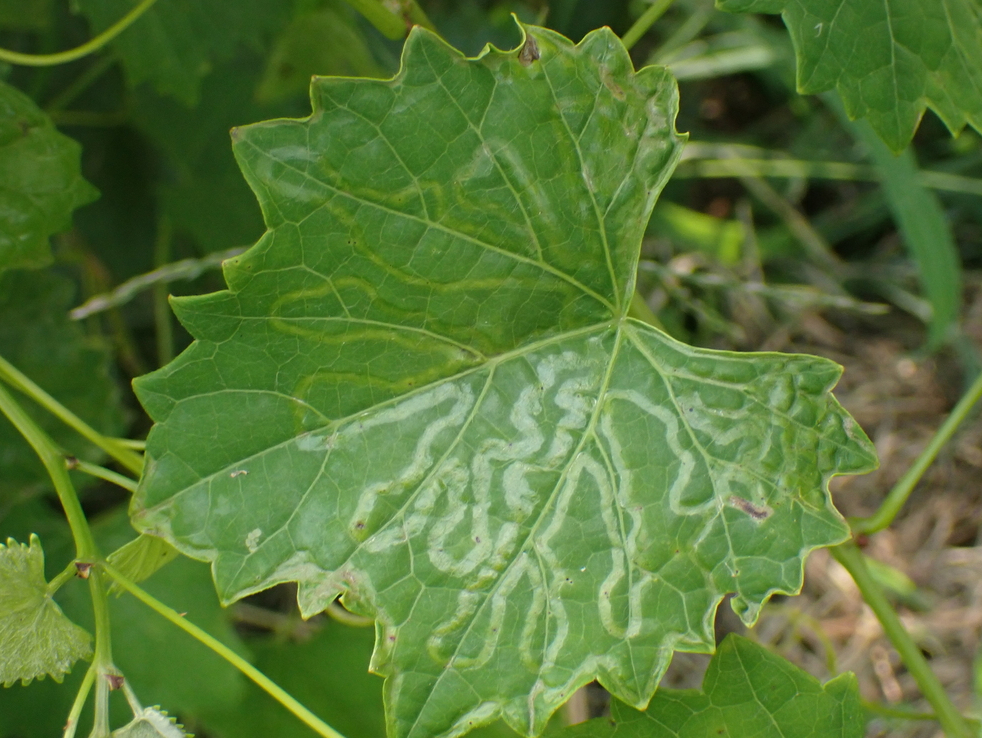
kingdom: Animalia
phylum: Arthropoda
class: Insecta
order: Lepidoptera
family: Gracillariidae
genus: Phyllocnistis
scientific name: Phyllocnistis vitegenella
